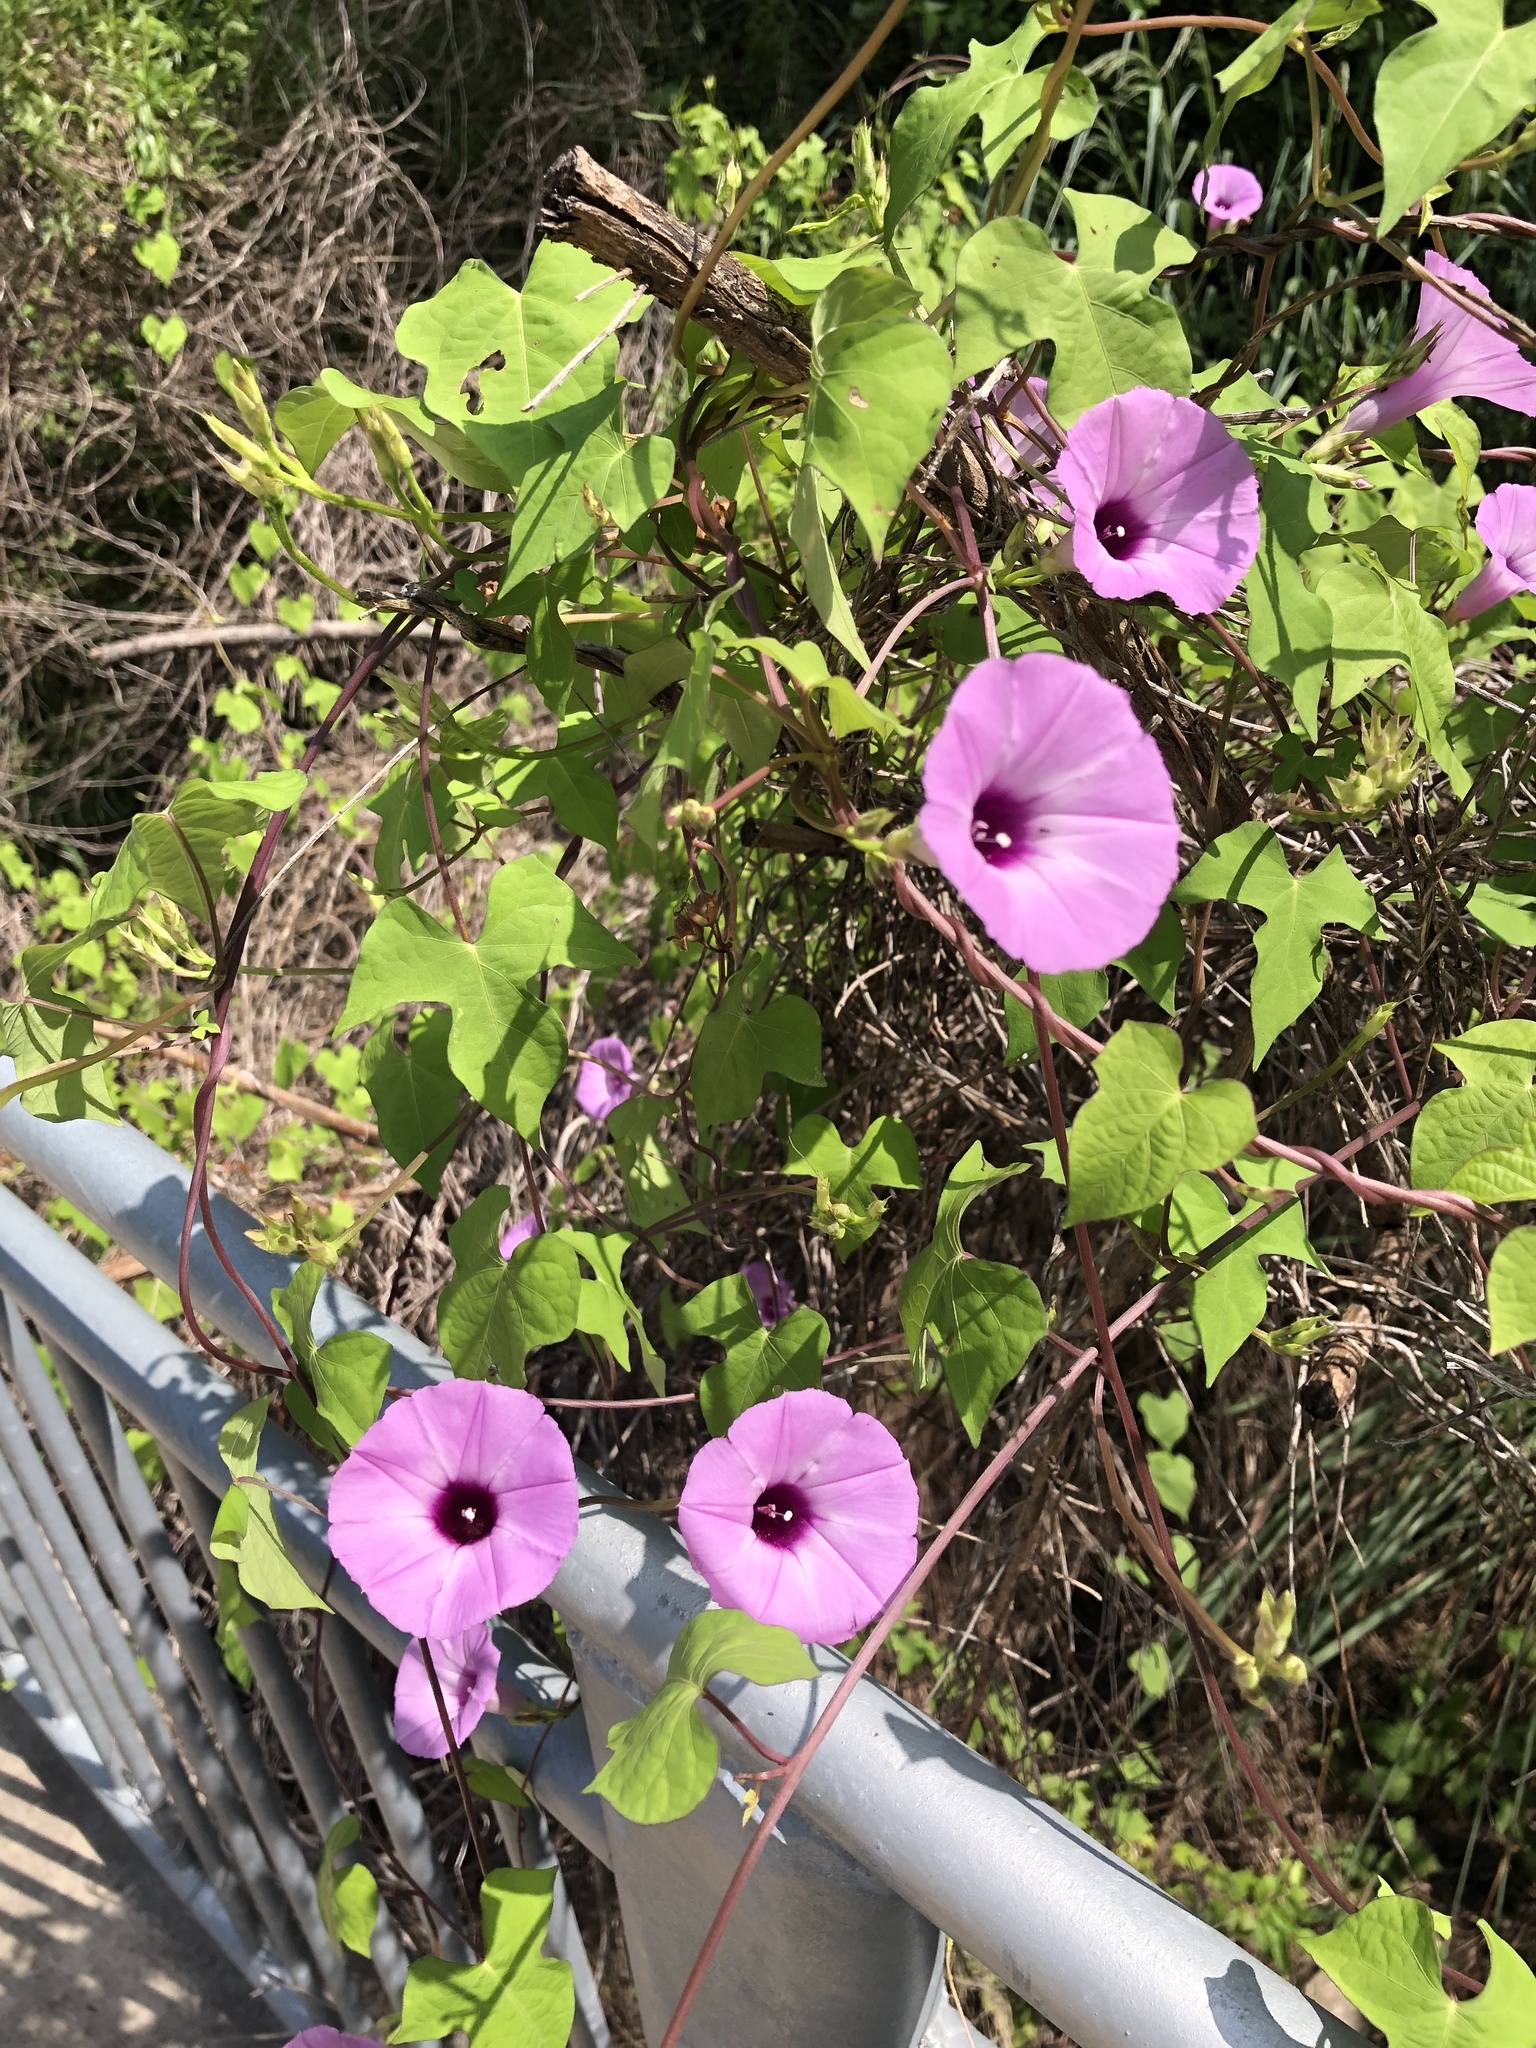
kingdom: Plantae
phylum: Tracheophyta
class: Magnoliopsida
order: Solanales
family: Convolvulaceae
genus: Ipomoea
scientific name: Ipomoea cordatotriloba
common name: Cotton morning glory
